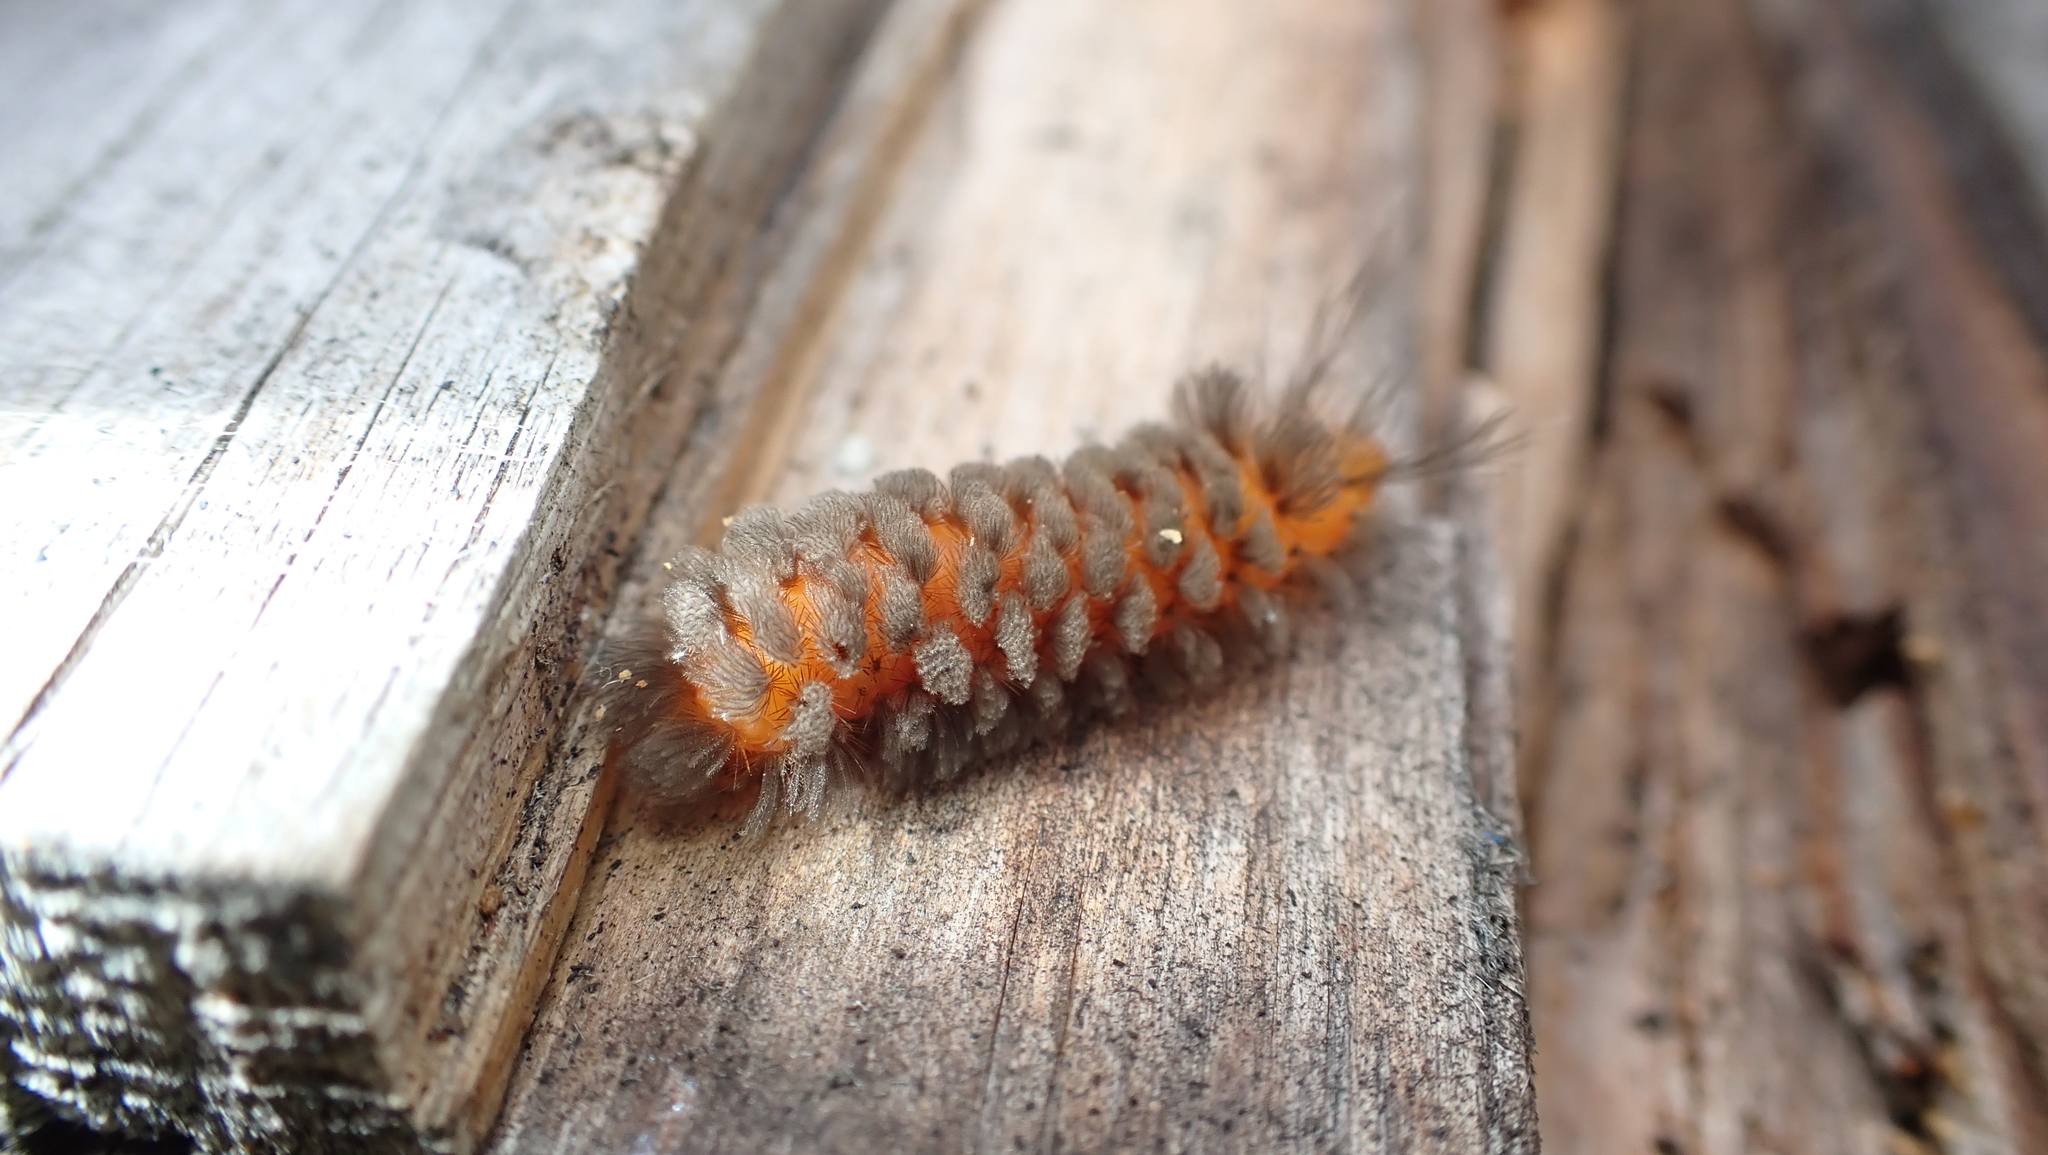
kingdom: Animalia
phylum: Arthropoda
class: Insecta
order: Lepidoptera
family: Erebidae
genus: Cycnia
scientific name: Cycnia collaris
